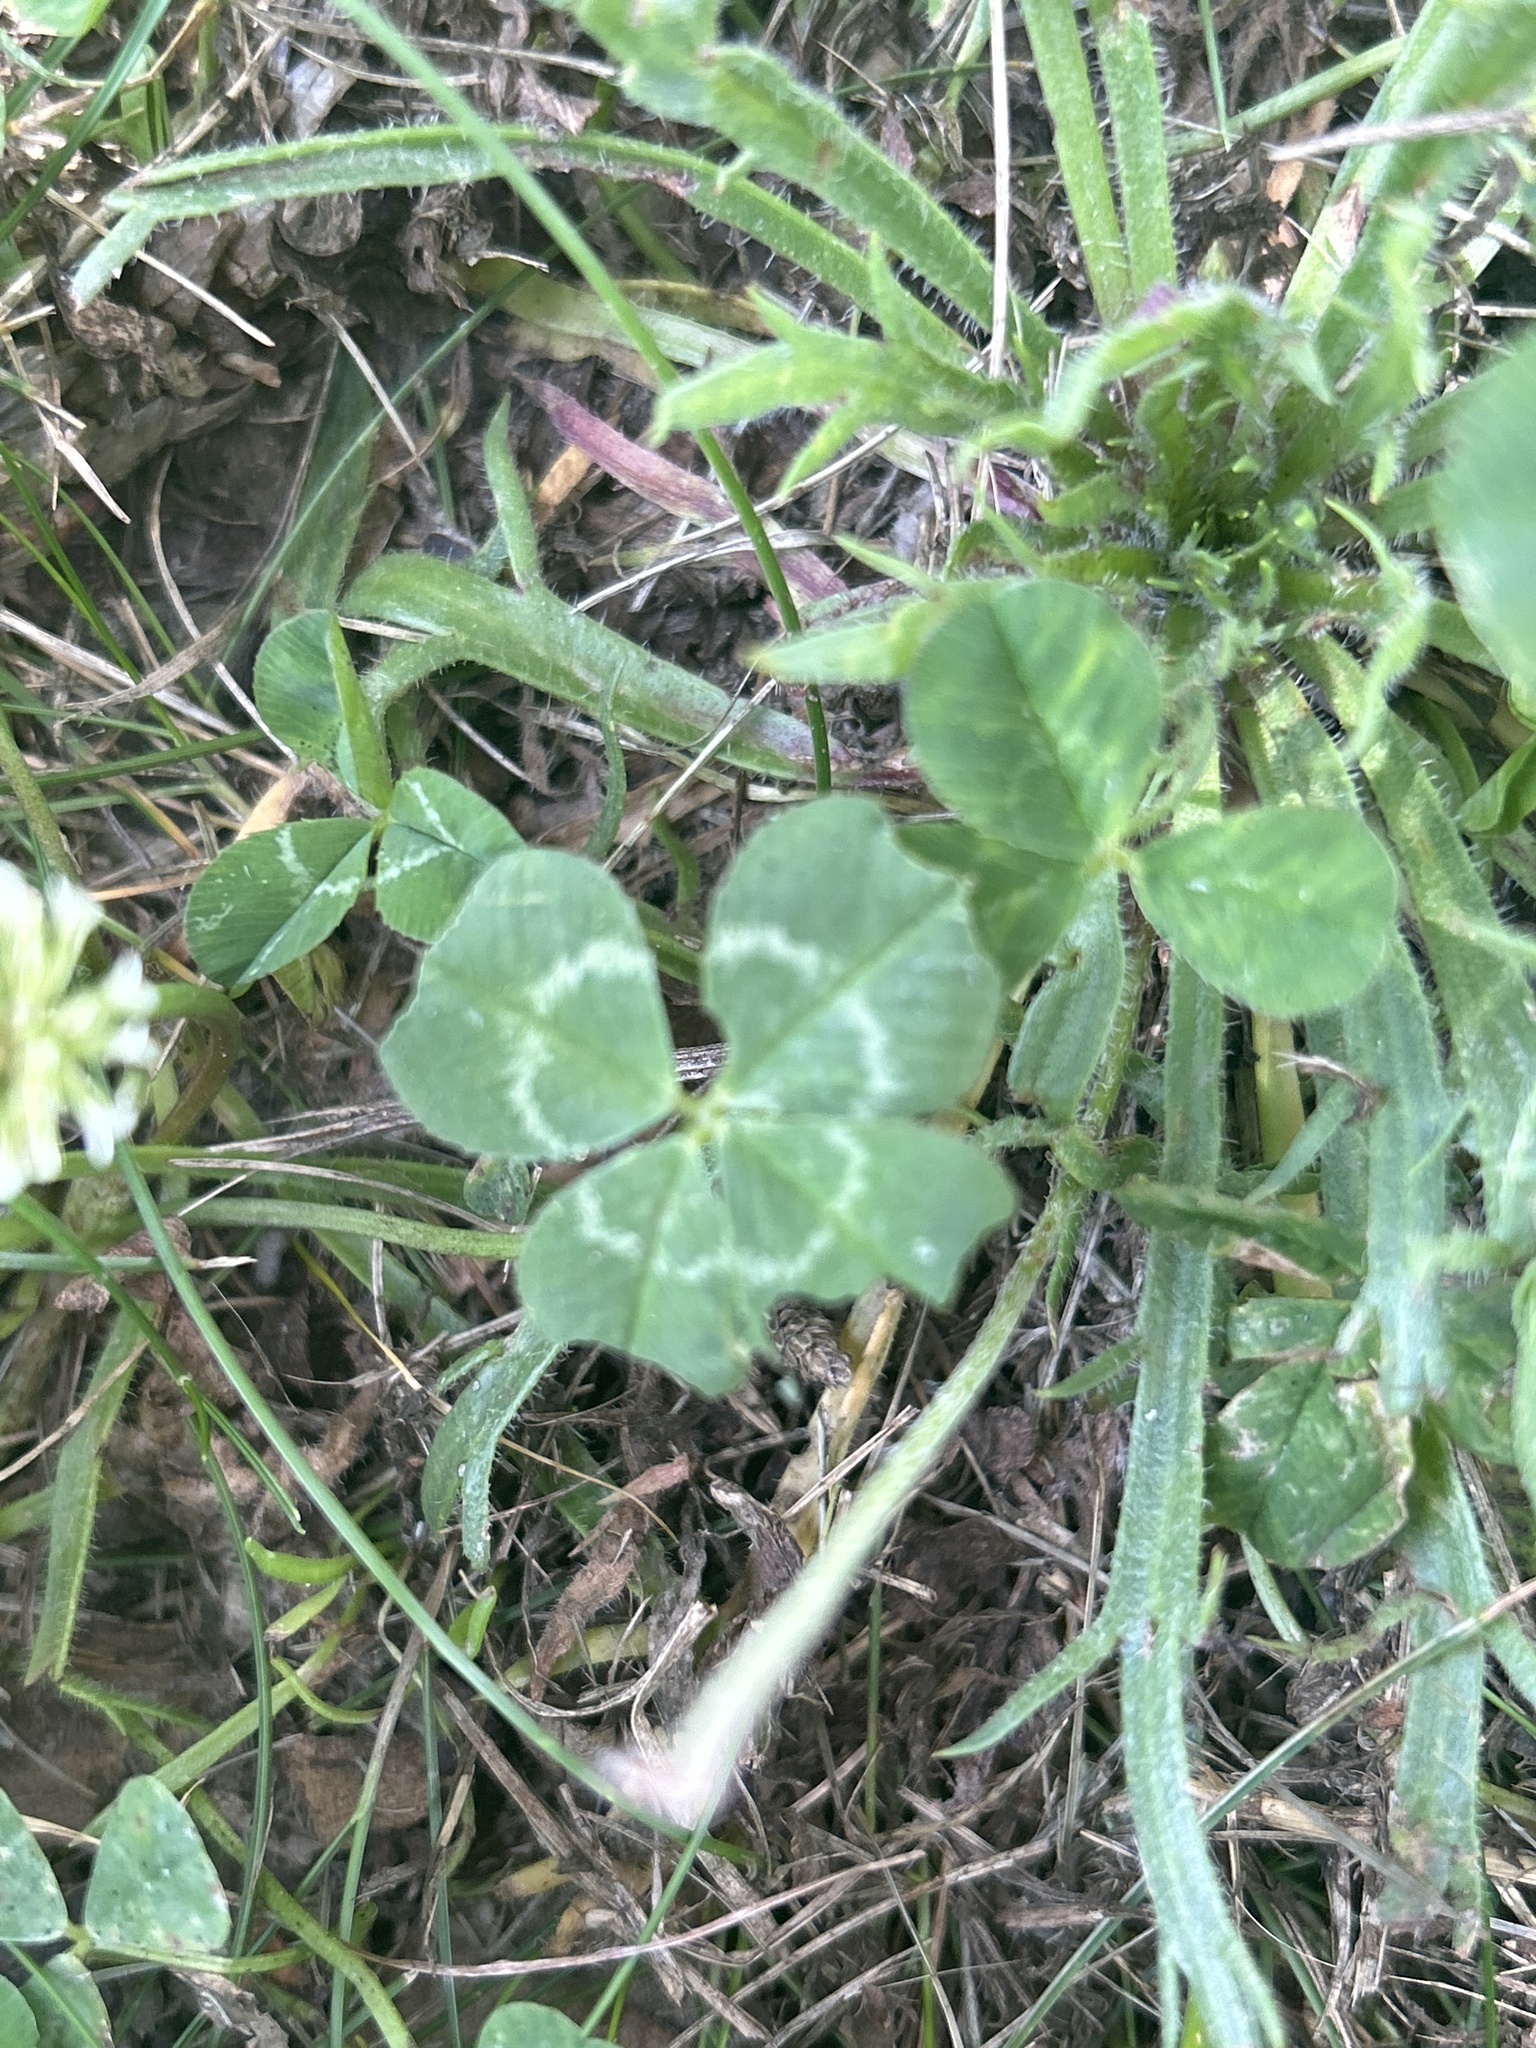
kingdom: Plantae
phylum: Tracheophyta
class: Magnoliopsida
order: Fabales
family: Fabaceae
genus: Trifolium
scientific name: Trifolium repens
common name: White clover
